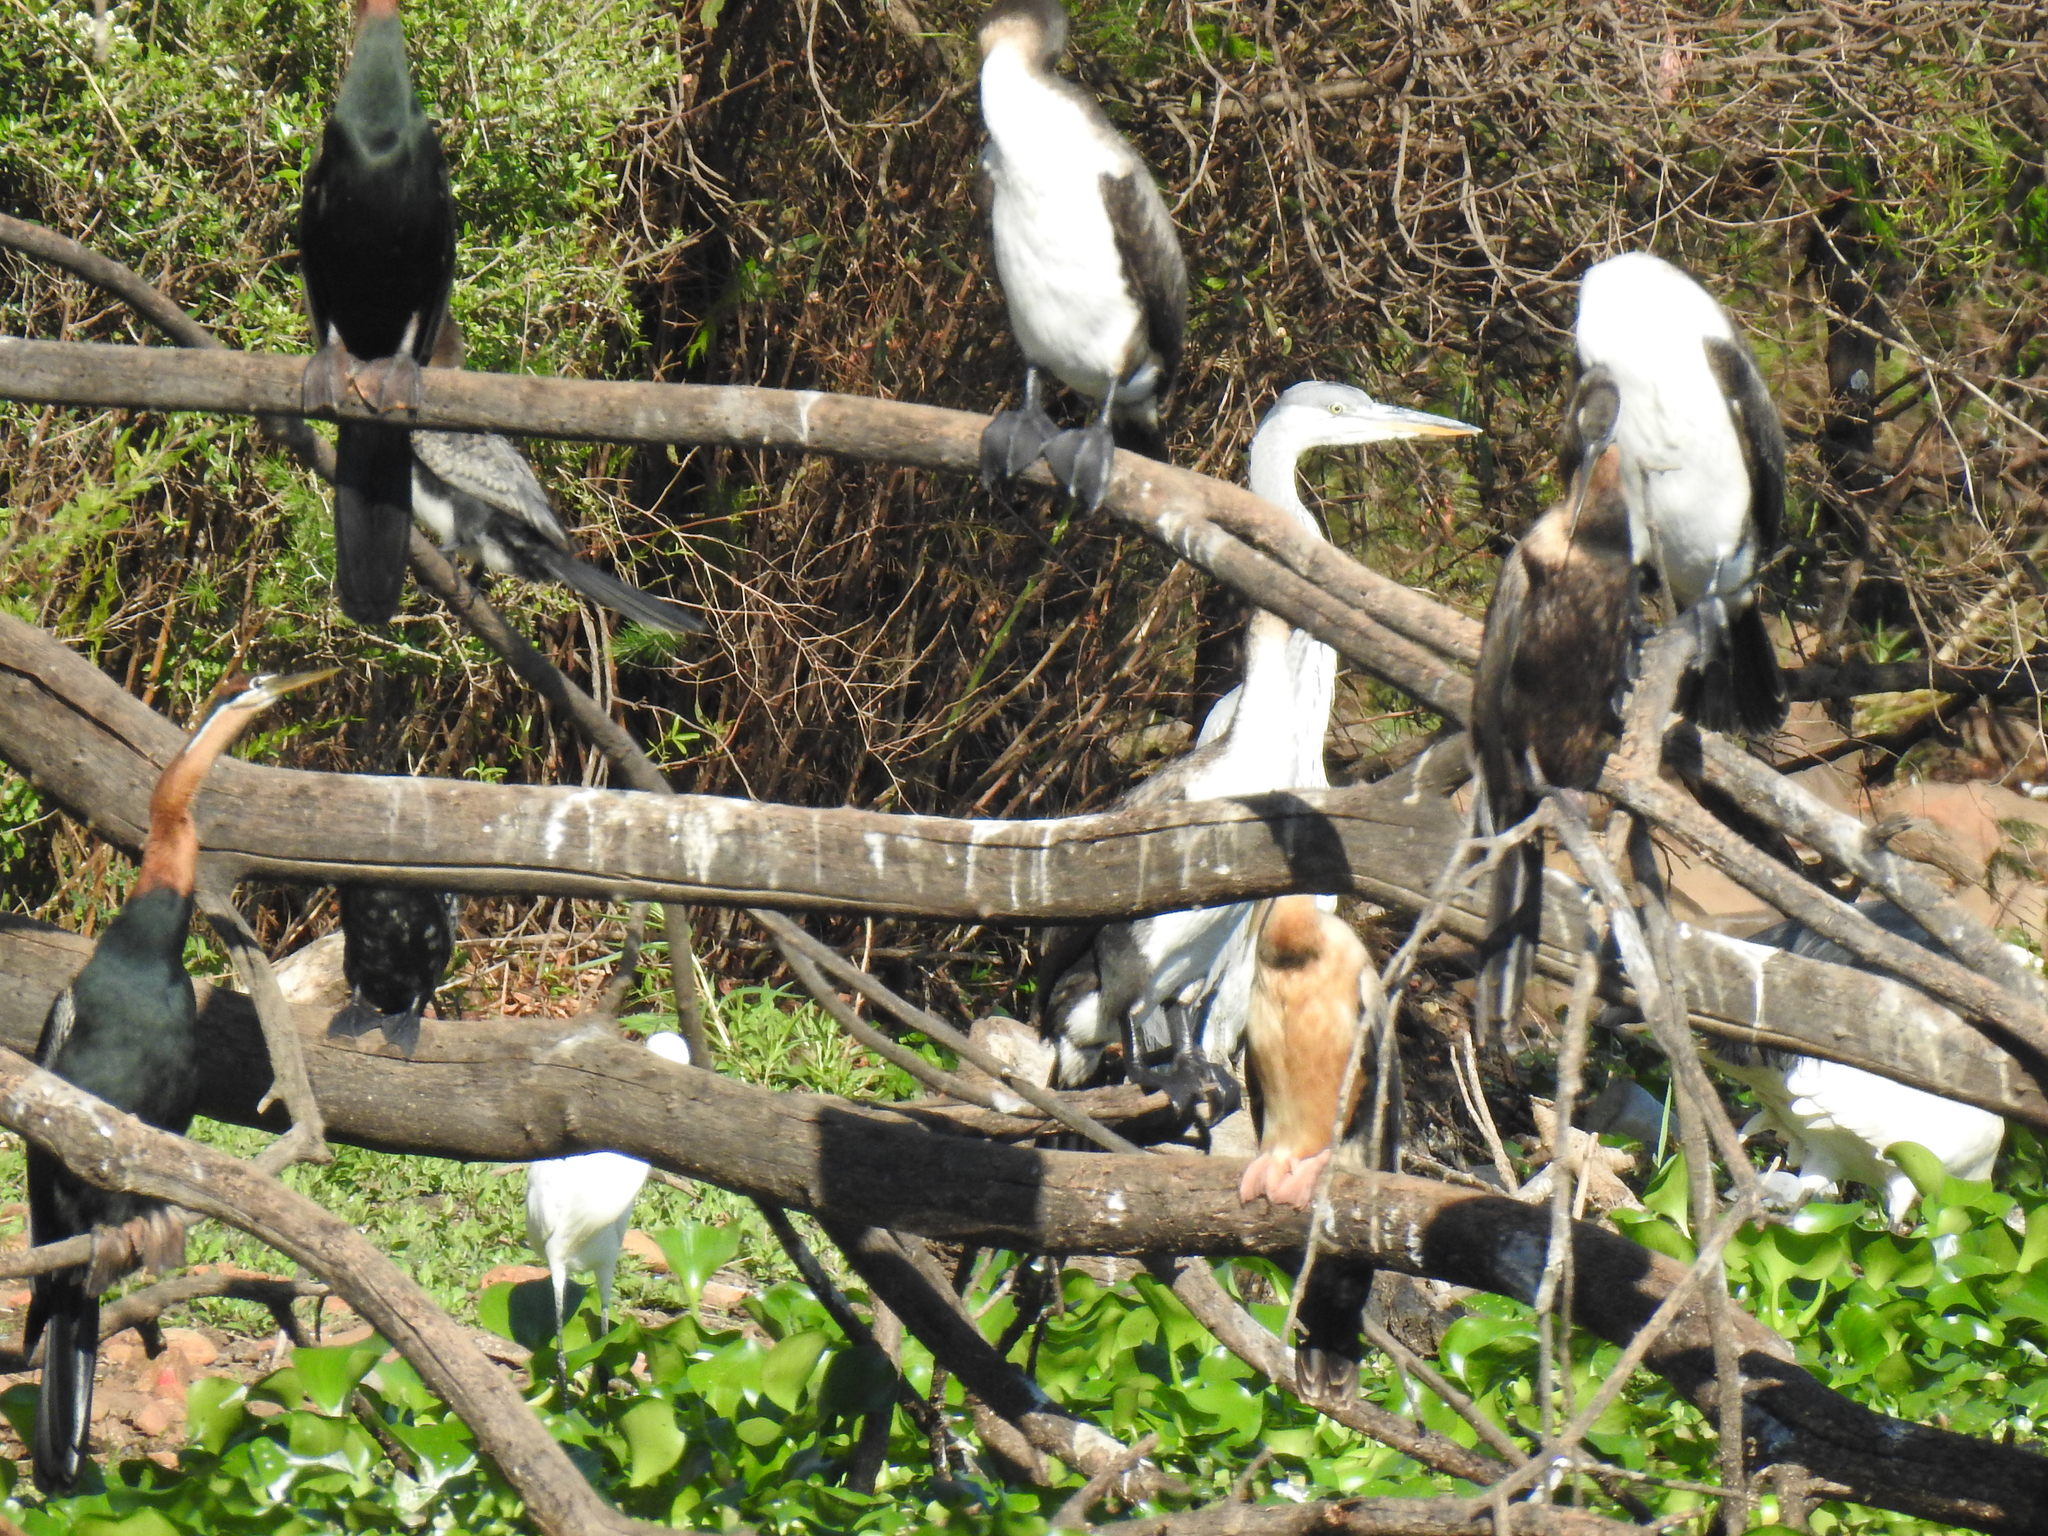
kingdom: Animalia
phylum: Chordata
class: Aves
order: Suliformes
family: Phalacrocoracidae
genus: Phalacrocorax
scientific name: Phalacrocorax carbo
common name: Great cormorant
